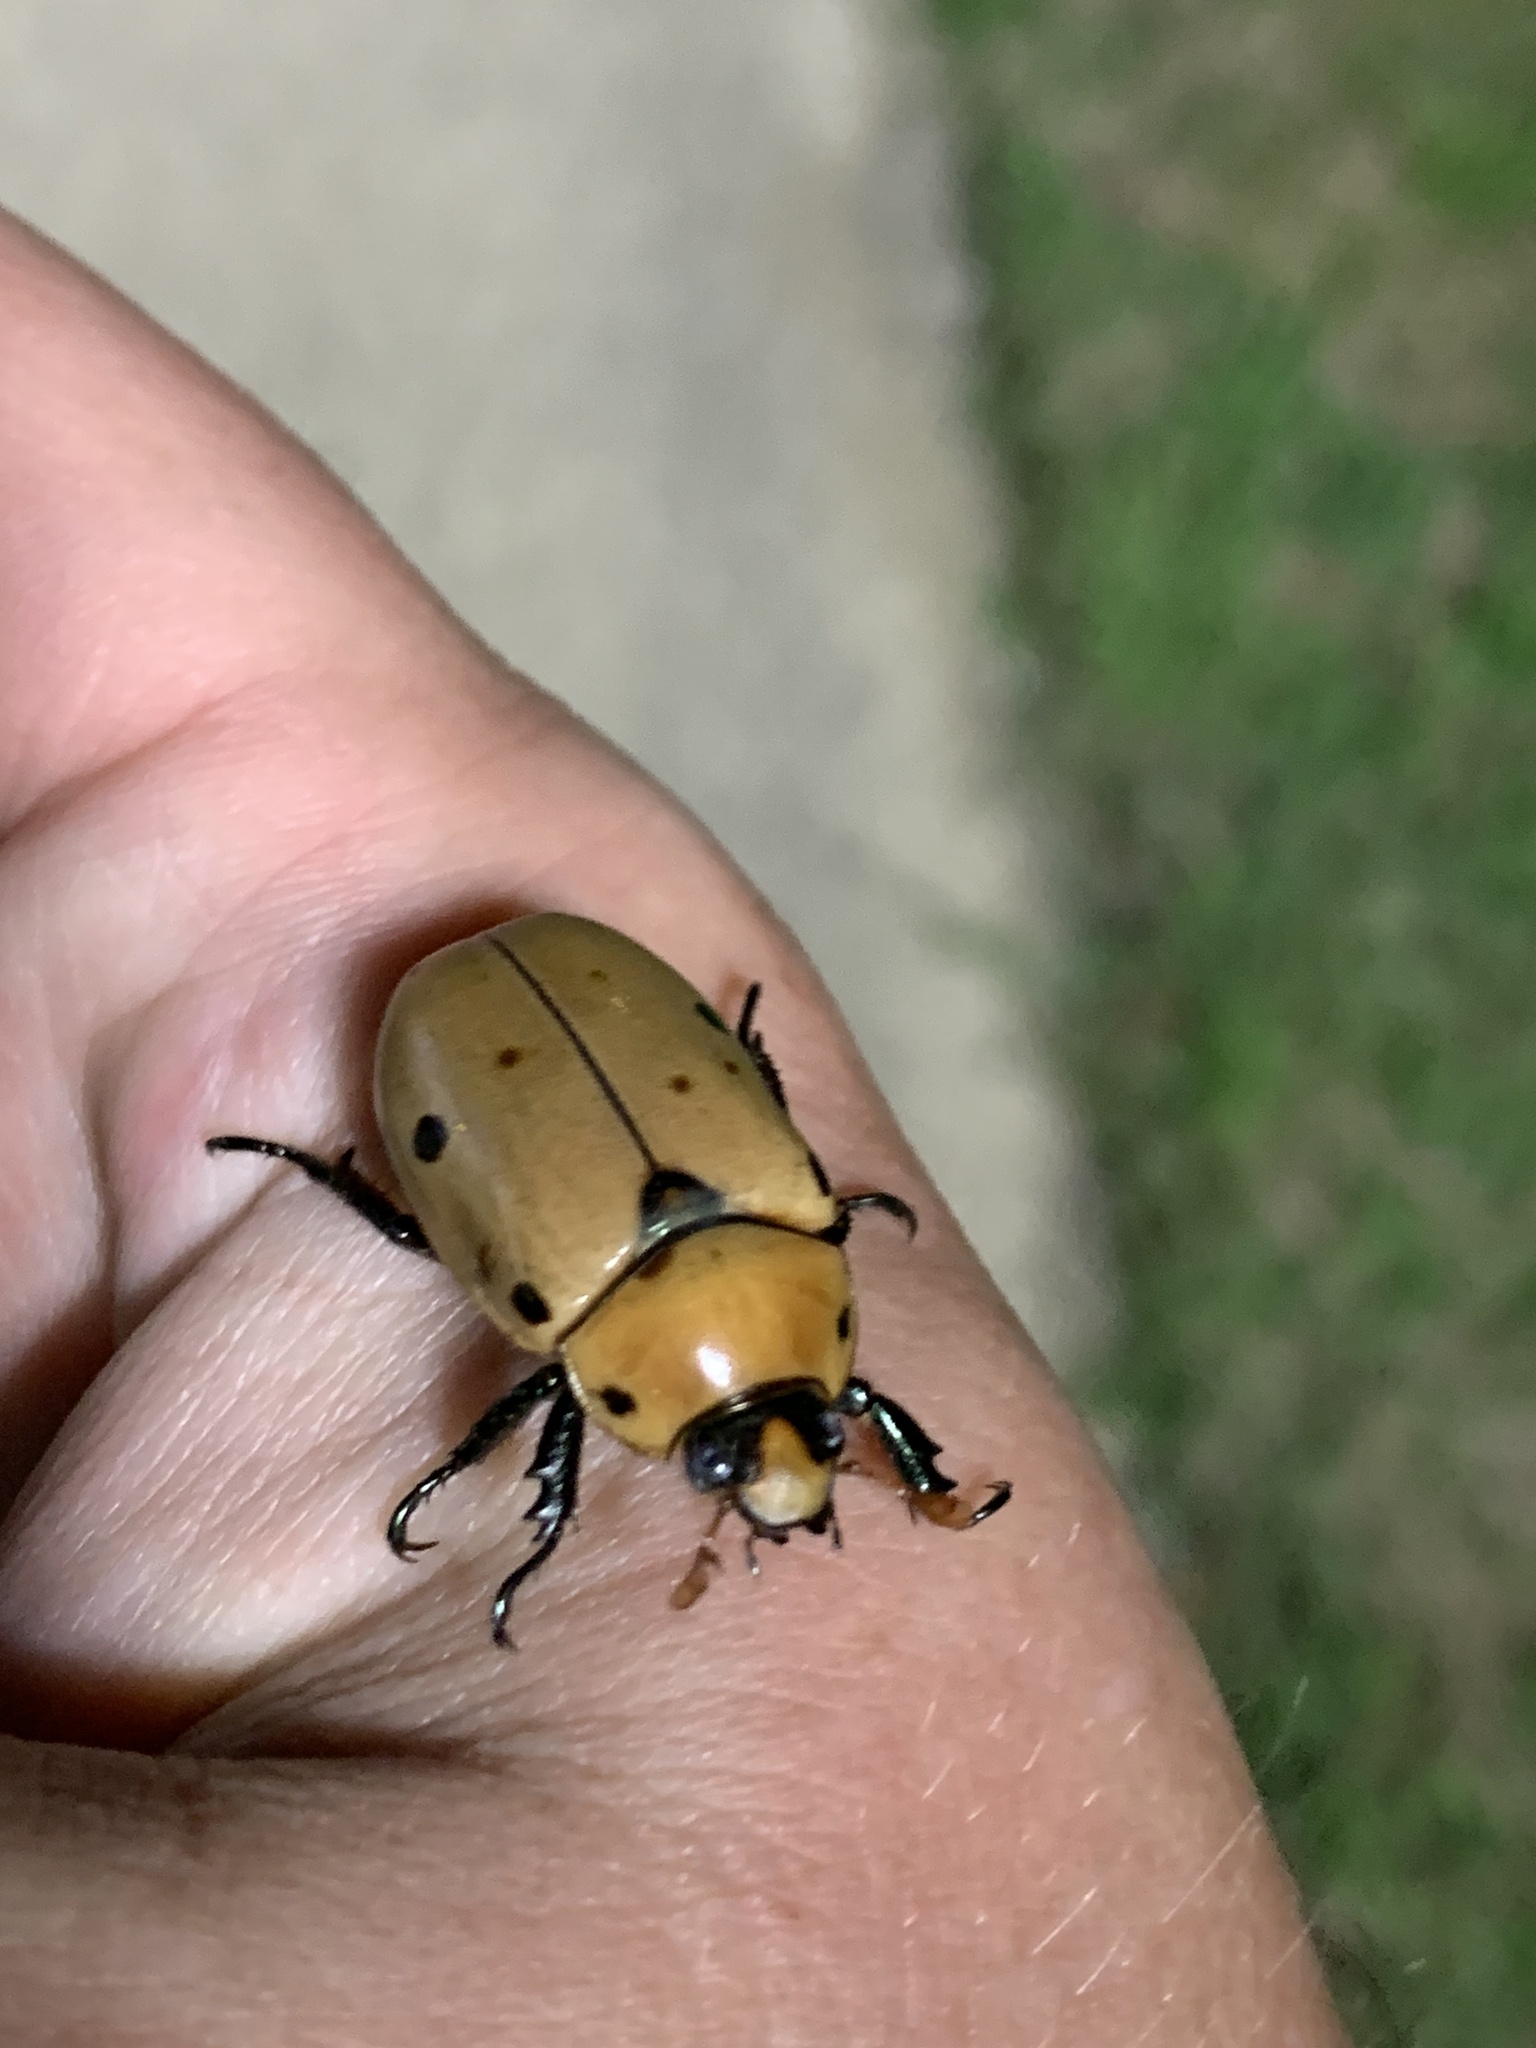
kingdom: Animalia
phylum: Arthropoda
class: Insecta
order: Coleoptera
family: Scarabaeidae
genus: Pelidnota
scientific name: Pelidnota punctata
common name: Grapevine beetle
